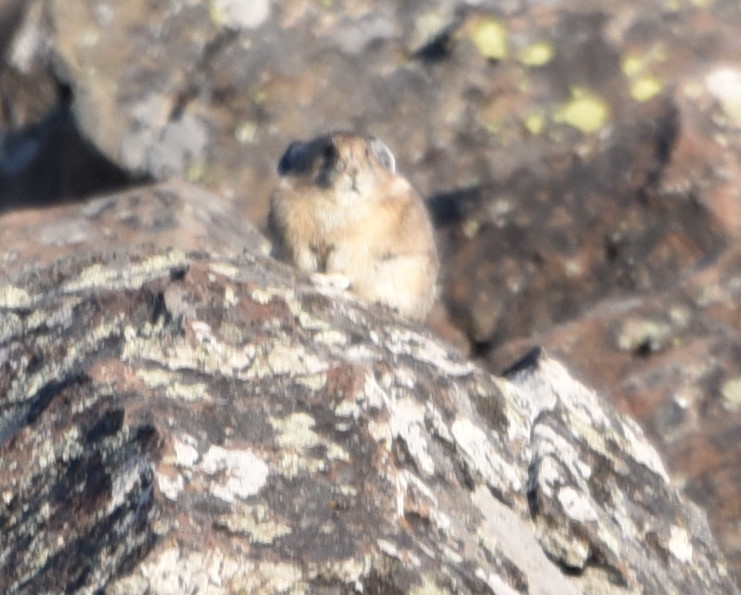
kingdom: Animalia
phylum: Chordata
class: Mammalia
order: Lagomorpha
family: Ochotonidae
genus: Ochotona
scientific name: Ochotona princeps
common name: American pika
